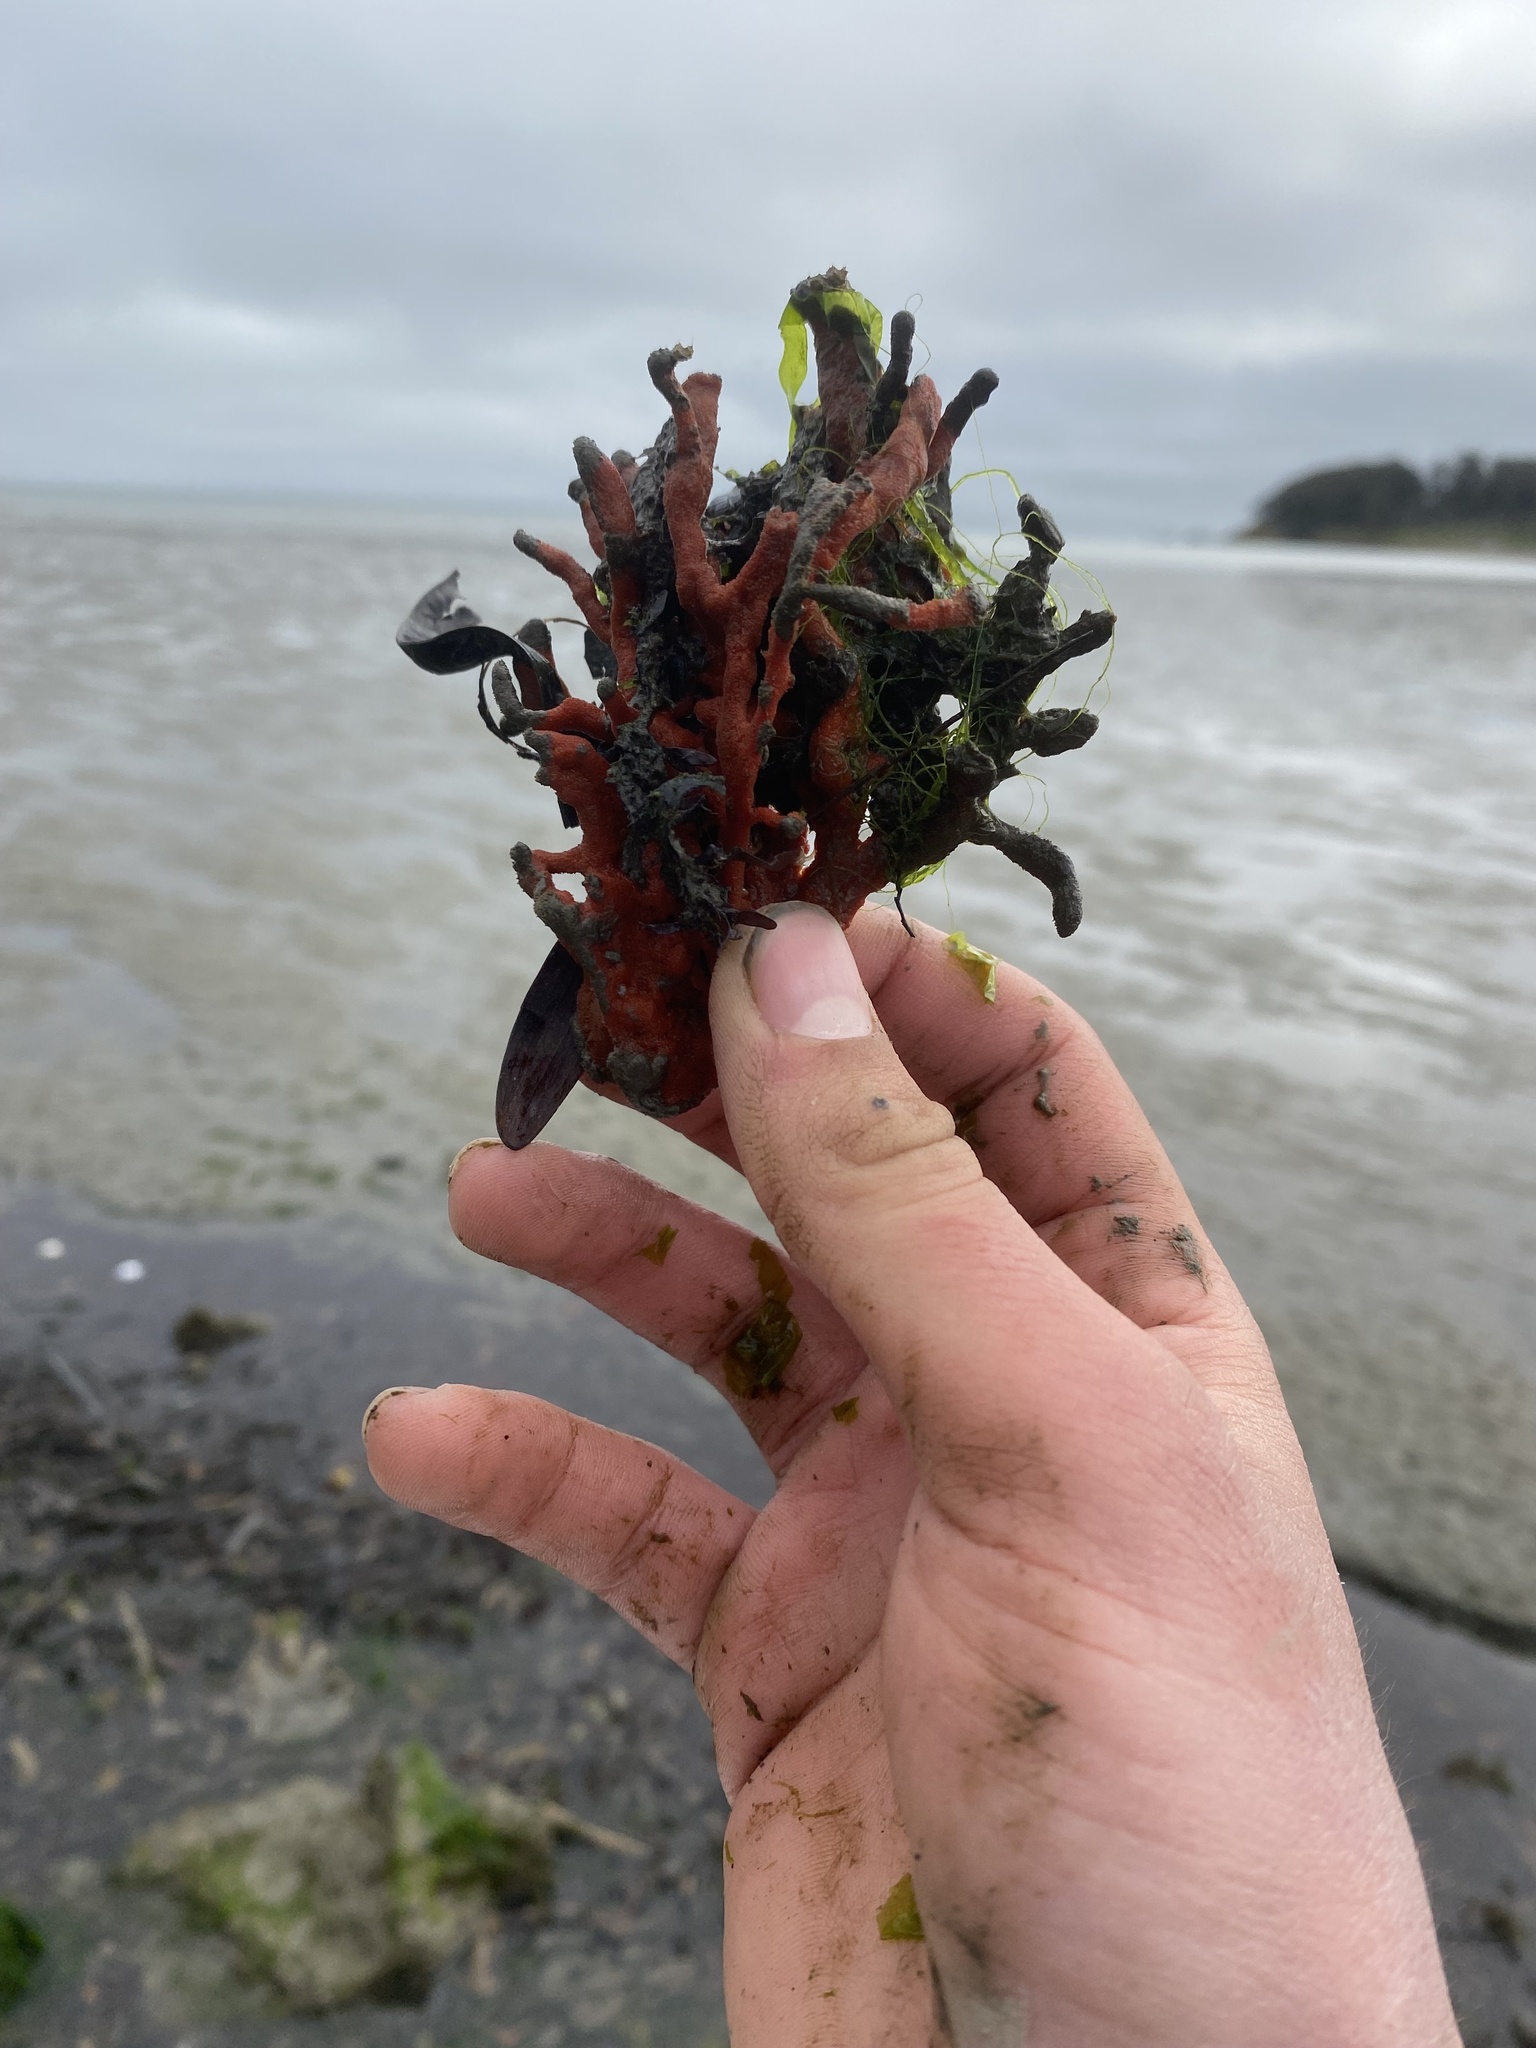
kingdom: Animalia
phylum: Porifera
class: Demospongiae
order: Poecilosclerida
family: Microcionidae
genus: Clathria
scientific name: Clathria prolifera
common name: Red beard sponge
